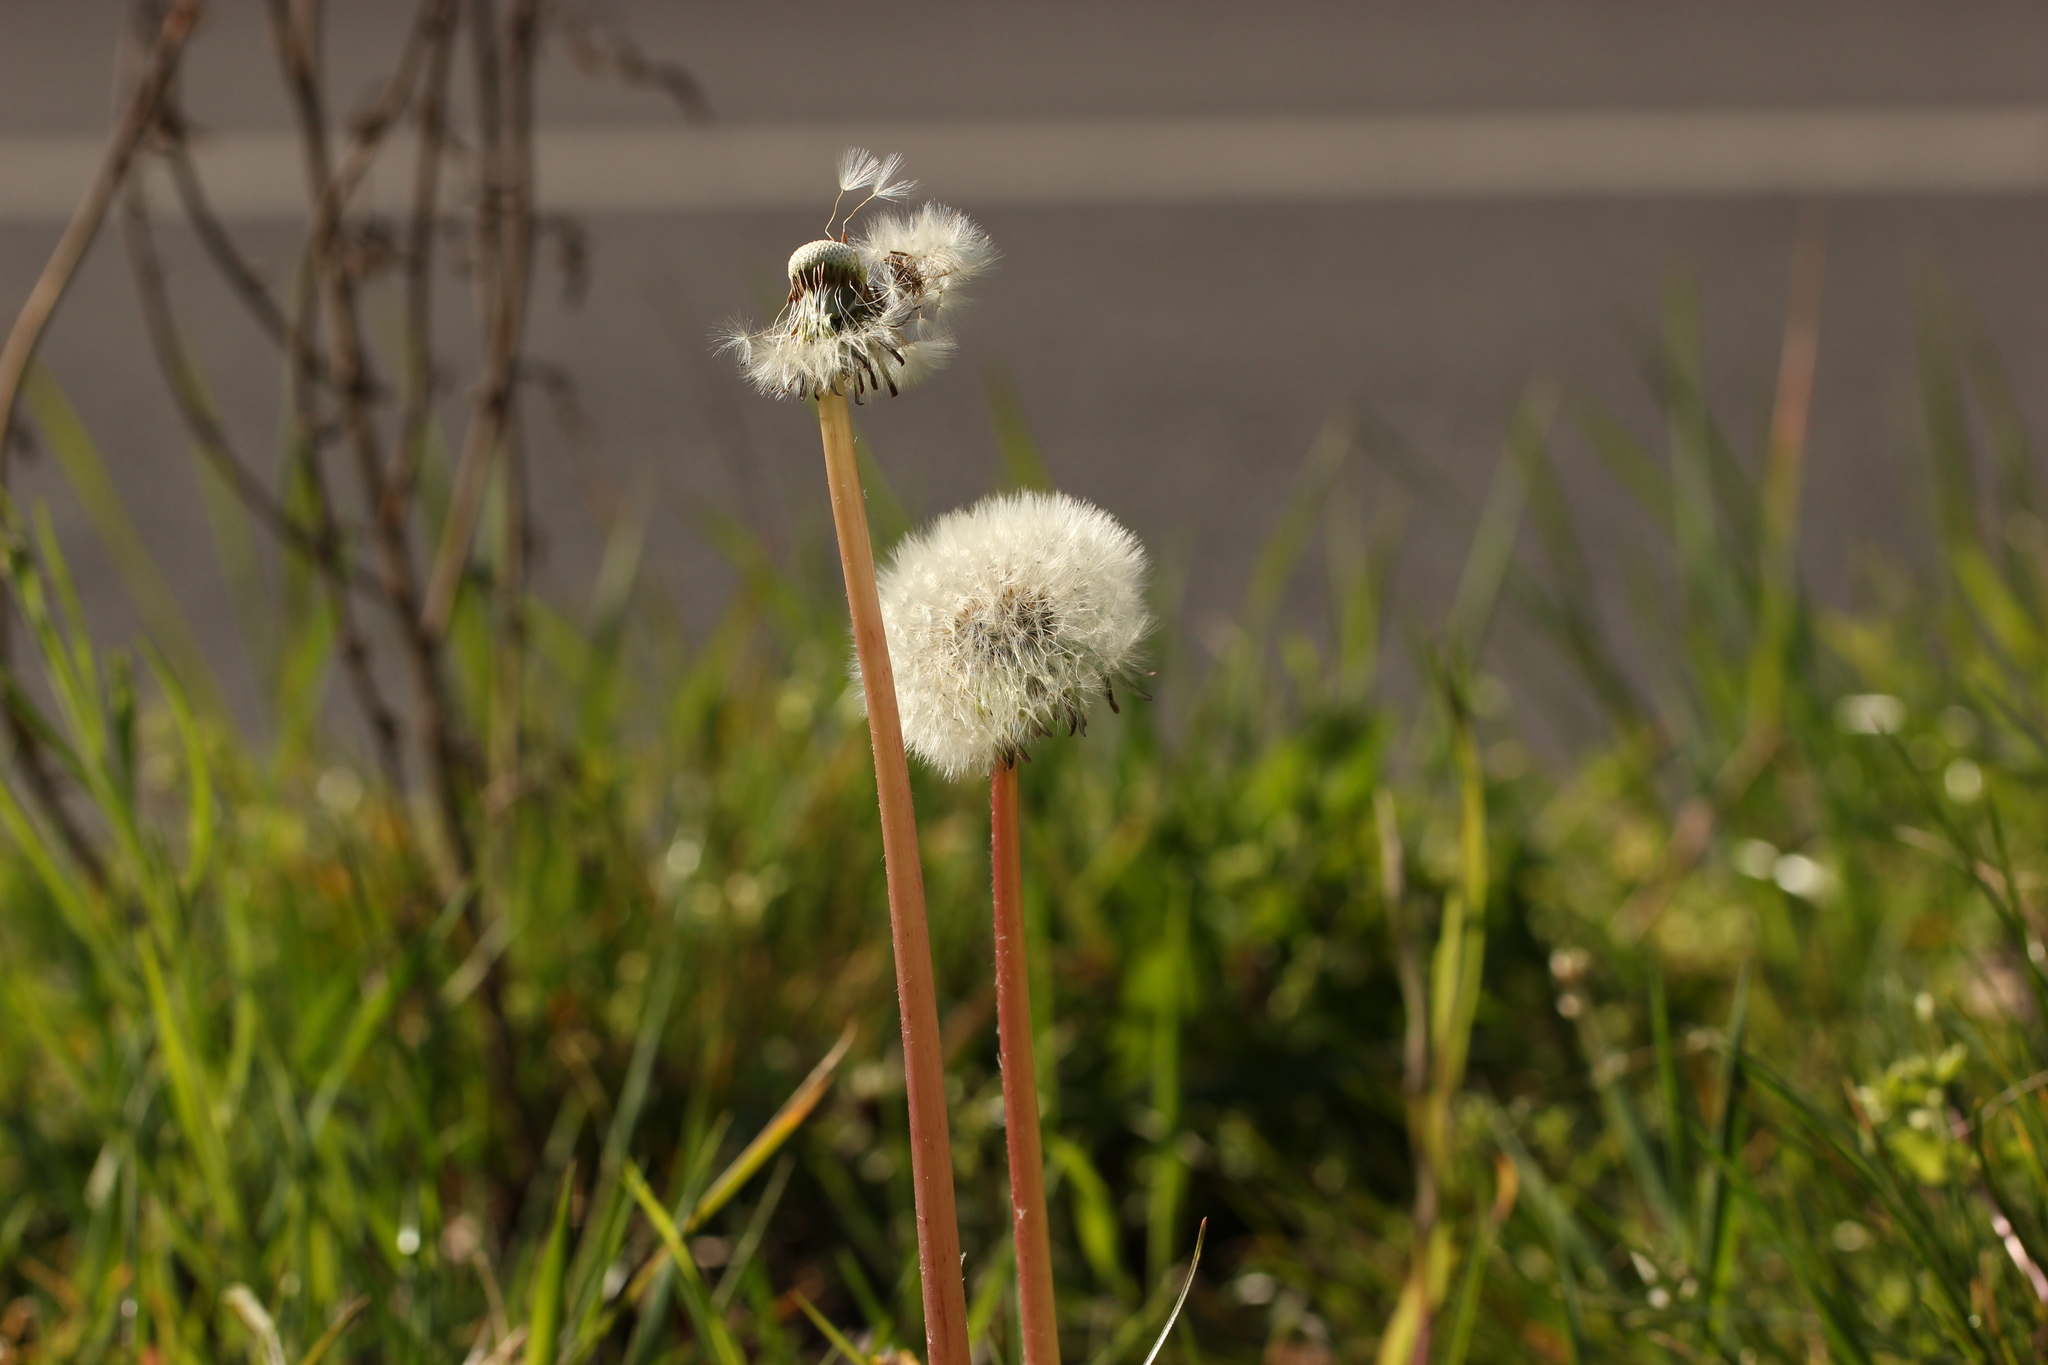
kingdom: Plantae
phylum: Tracheophyta
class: Magnoliopsida
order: Asterales
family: Asteraceae
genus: Taraxacum
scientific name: Taraxacum officinale
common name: Common dandelion
